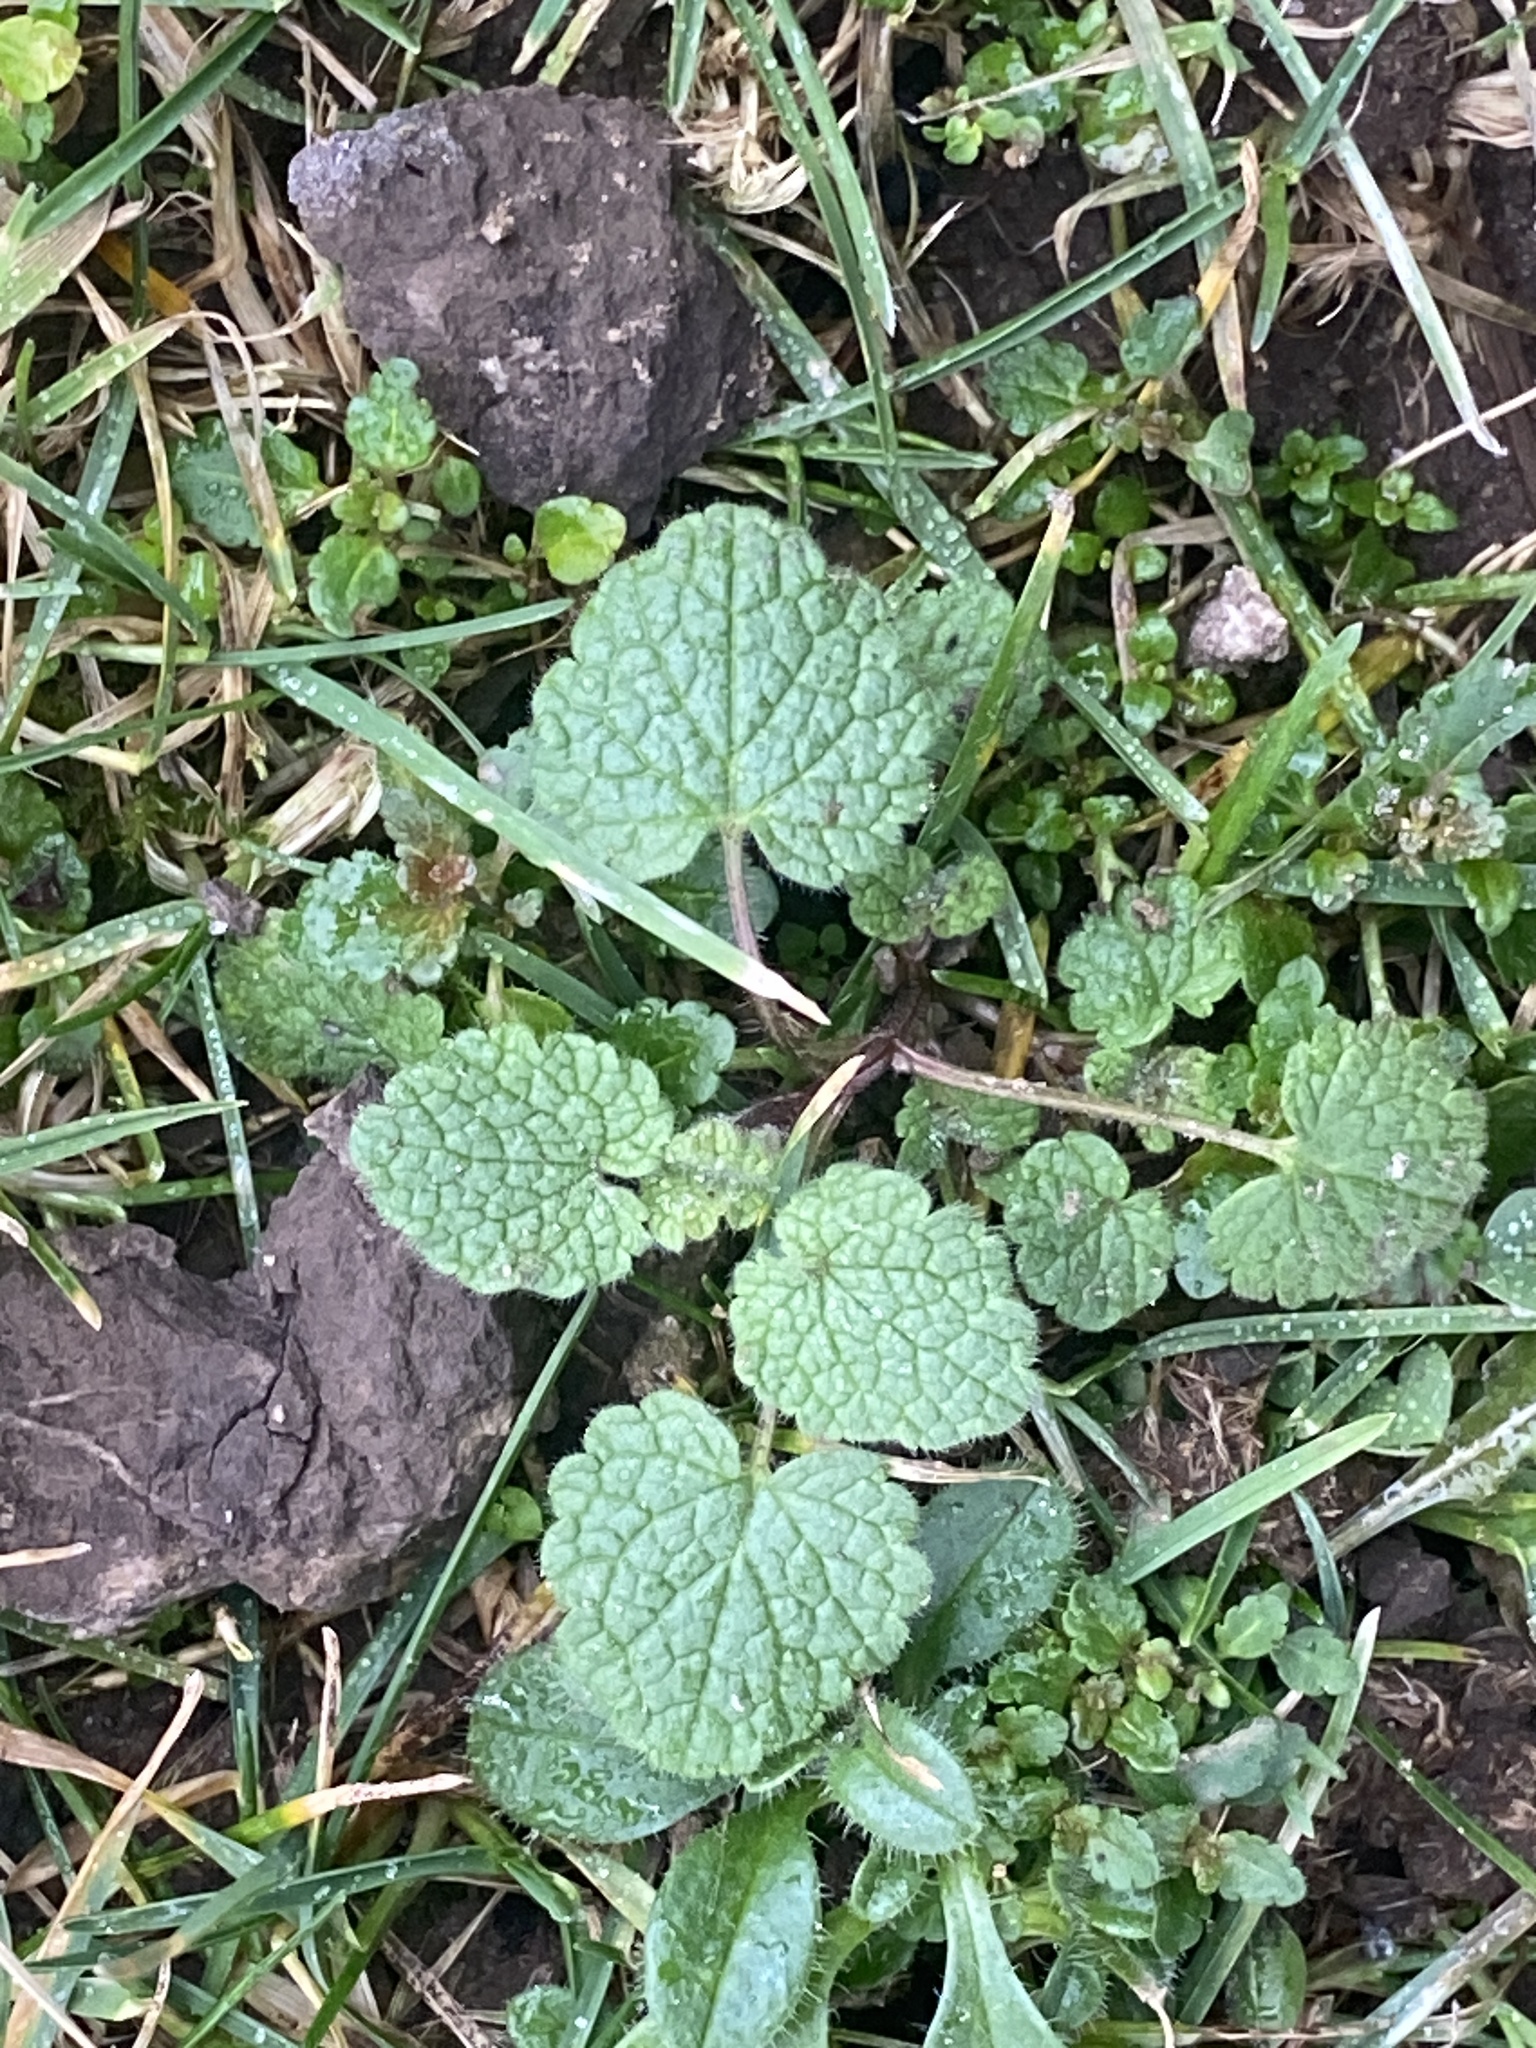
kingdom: Plantae
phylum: Tracheophyta
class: Magnoliopsida
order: Lamiales
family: Lamiaceae
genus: Lamium
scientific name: Lamium purpureum
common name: Red dead-nettle
